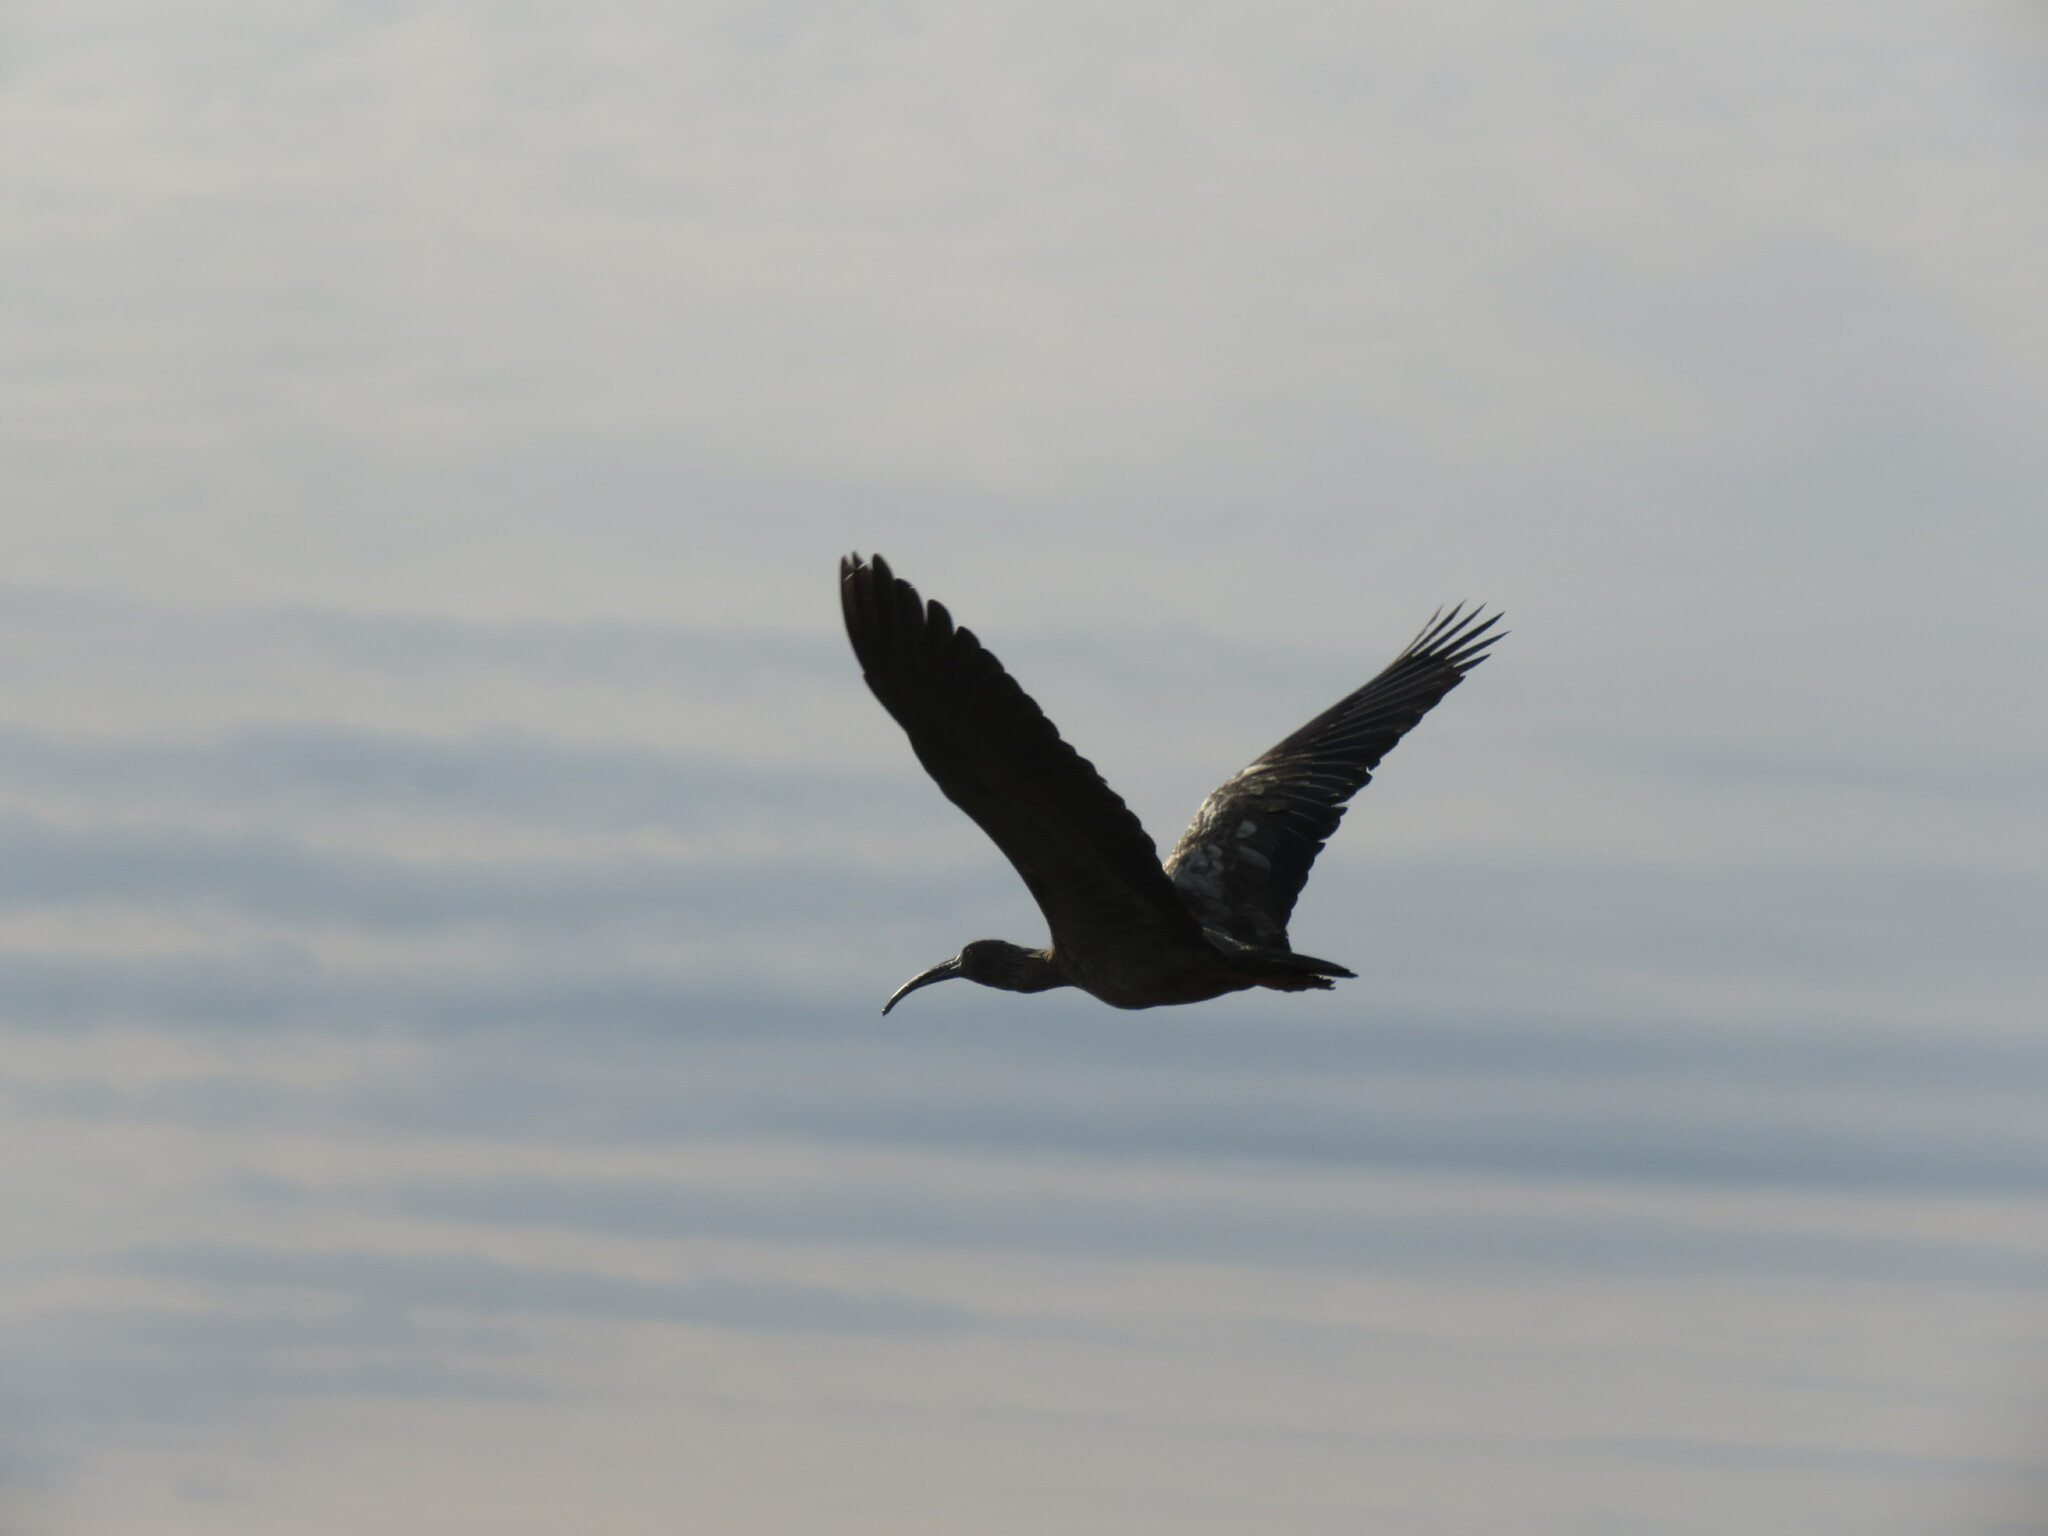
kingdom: Animalia
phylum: Chordata
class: Aves
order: Pelecaniformes
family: Threskiornithidae
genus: Theristicus
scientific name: Theristicus caerulescens
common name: Plumbeous ibis
